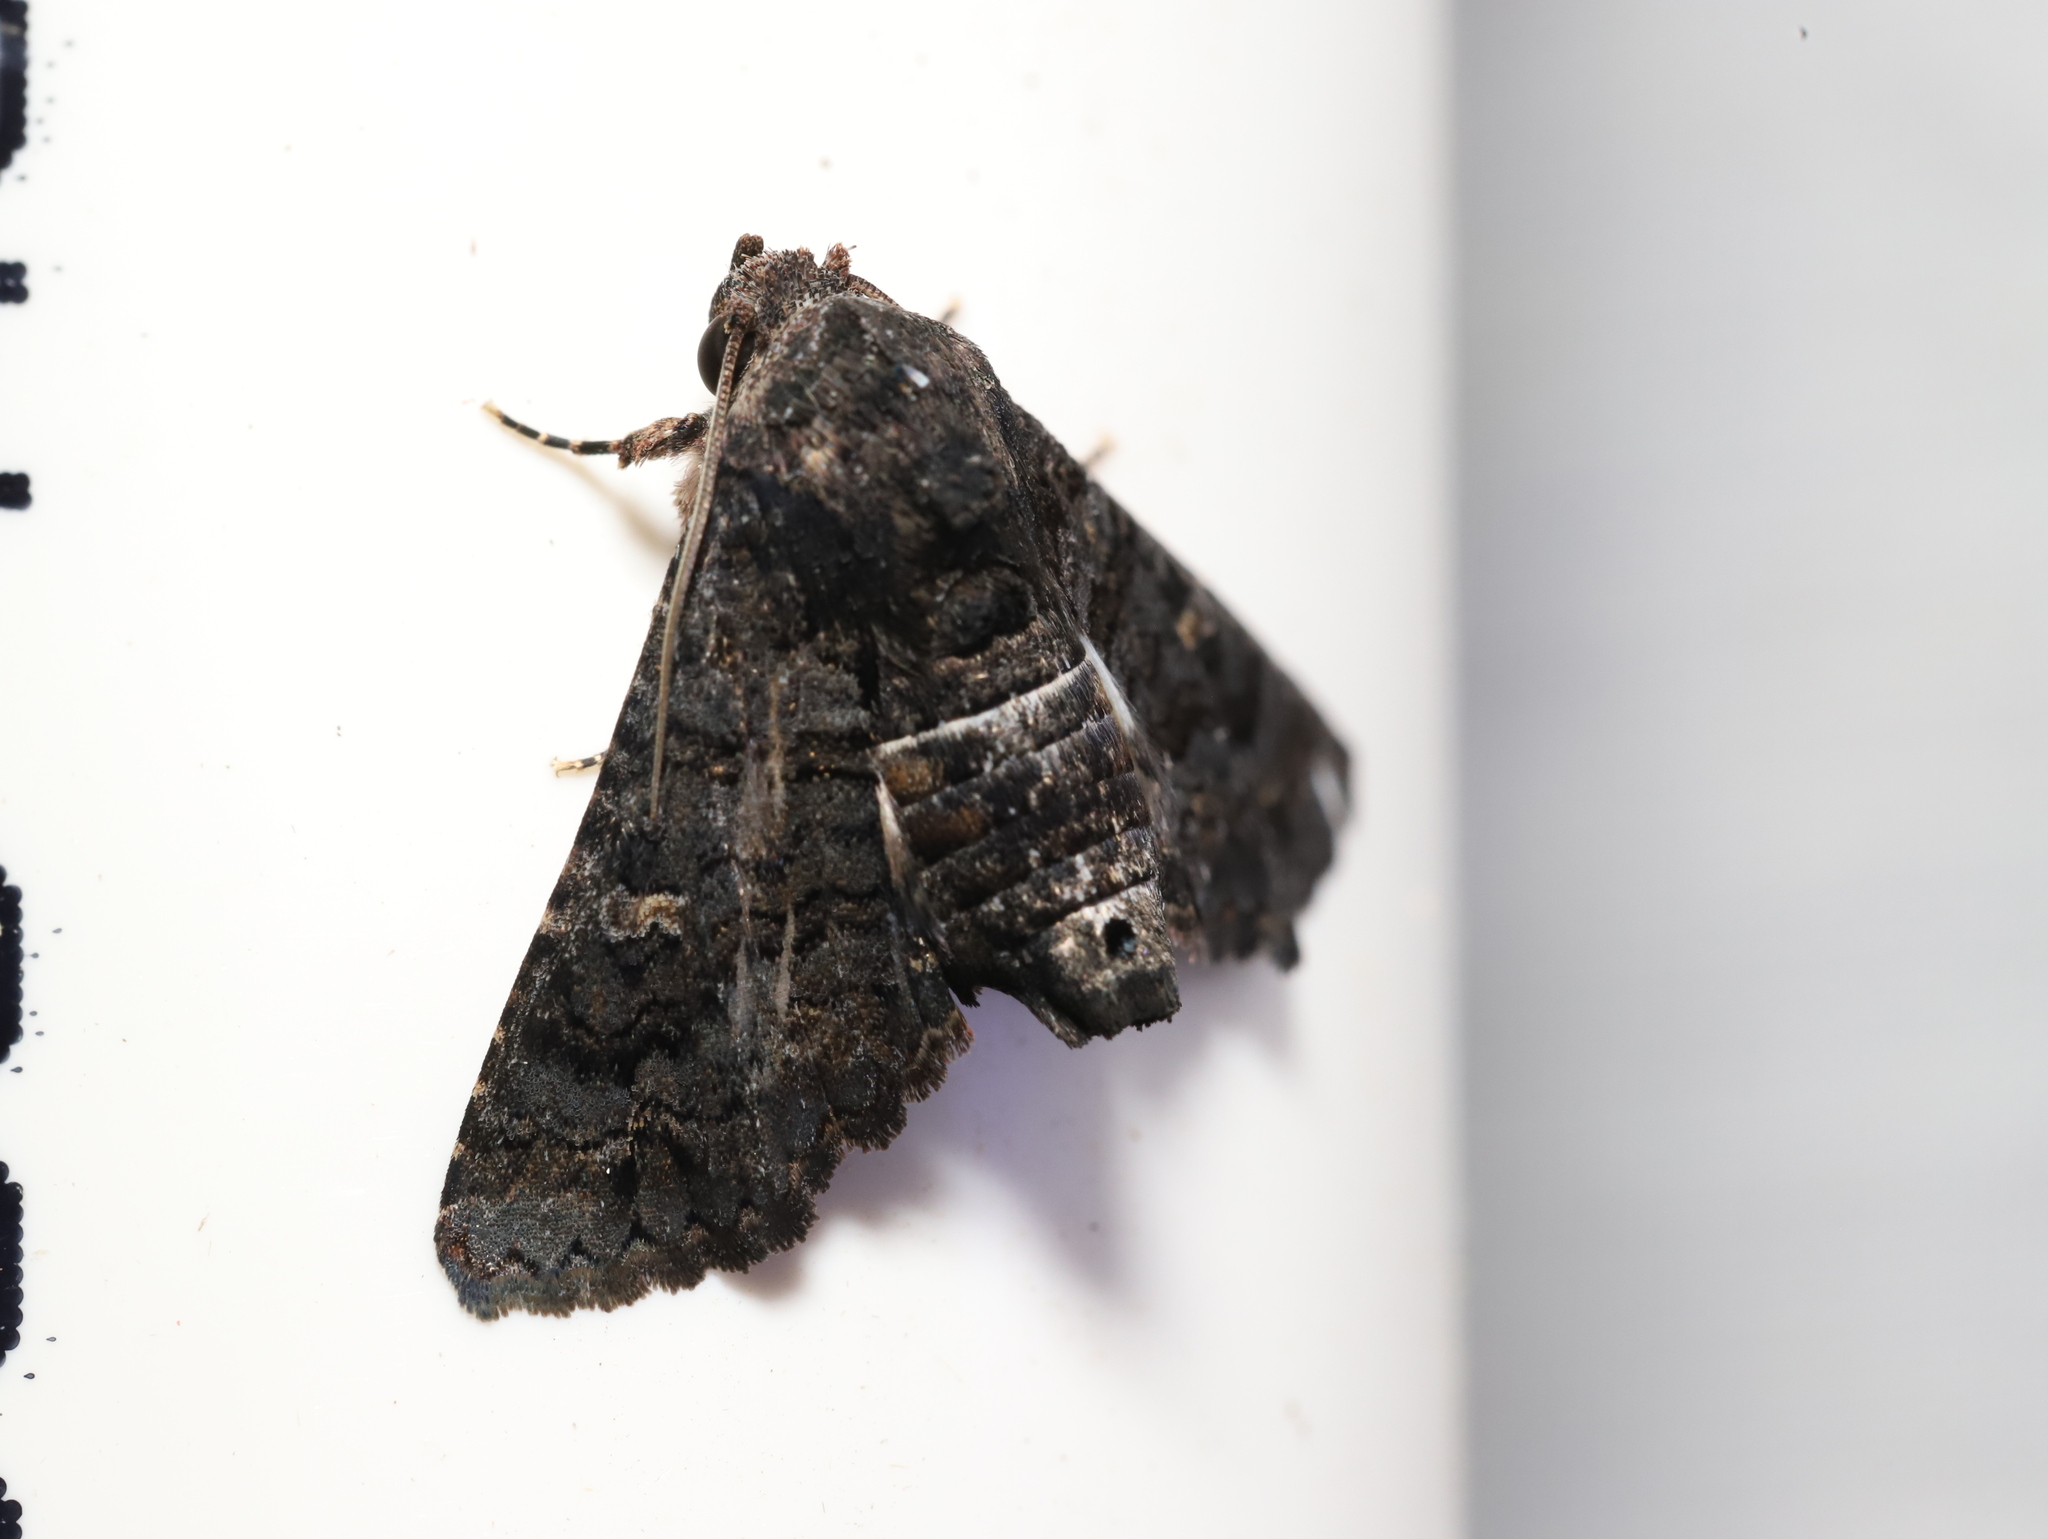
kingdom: Animalia
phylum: Arthropoda
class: Insecta
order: Lepidoptera
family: Euteliidae
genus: Pataeta
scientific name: Pataeta carbo
